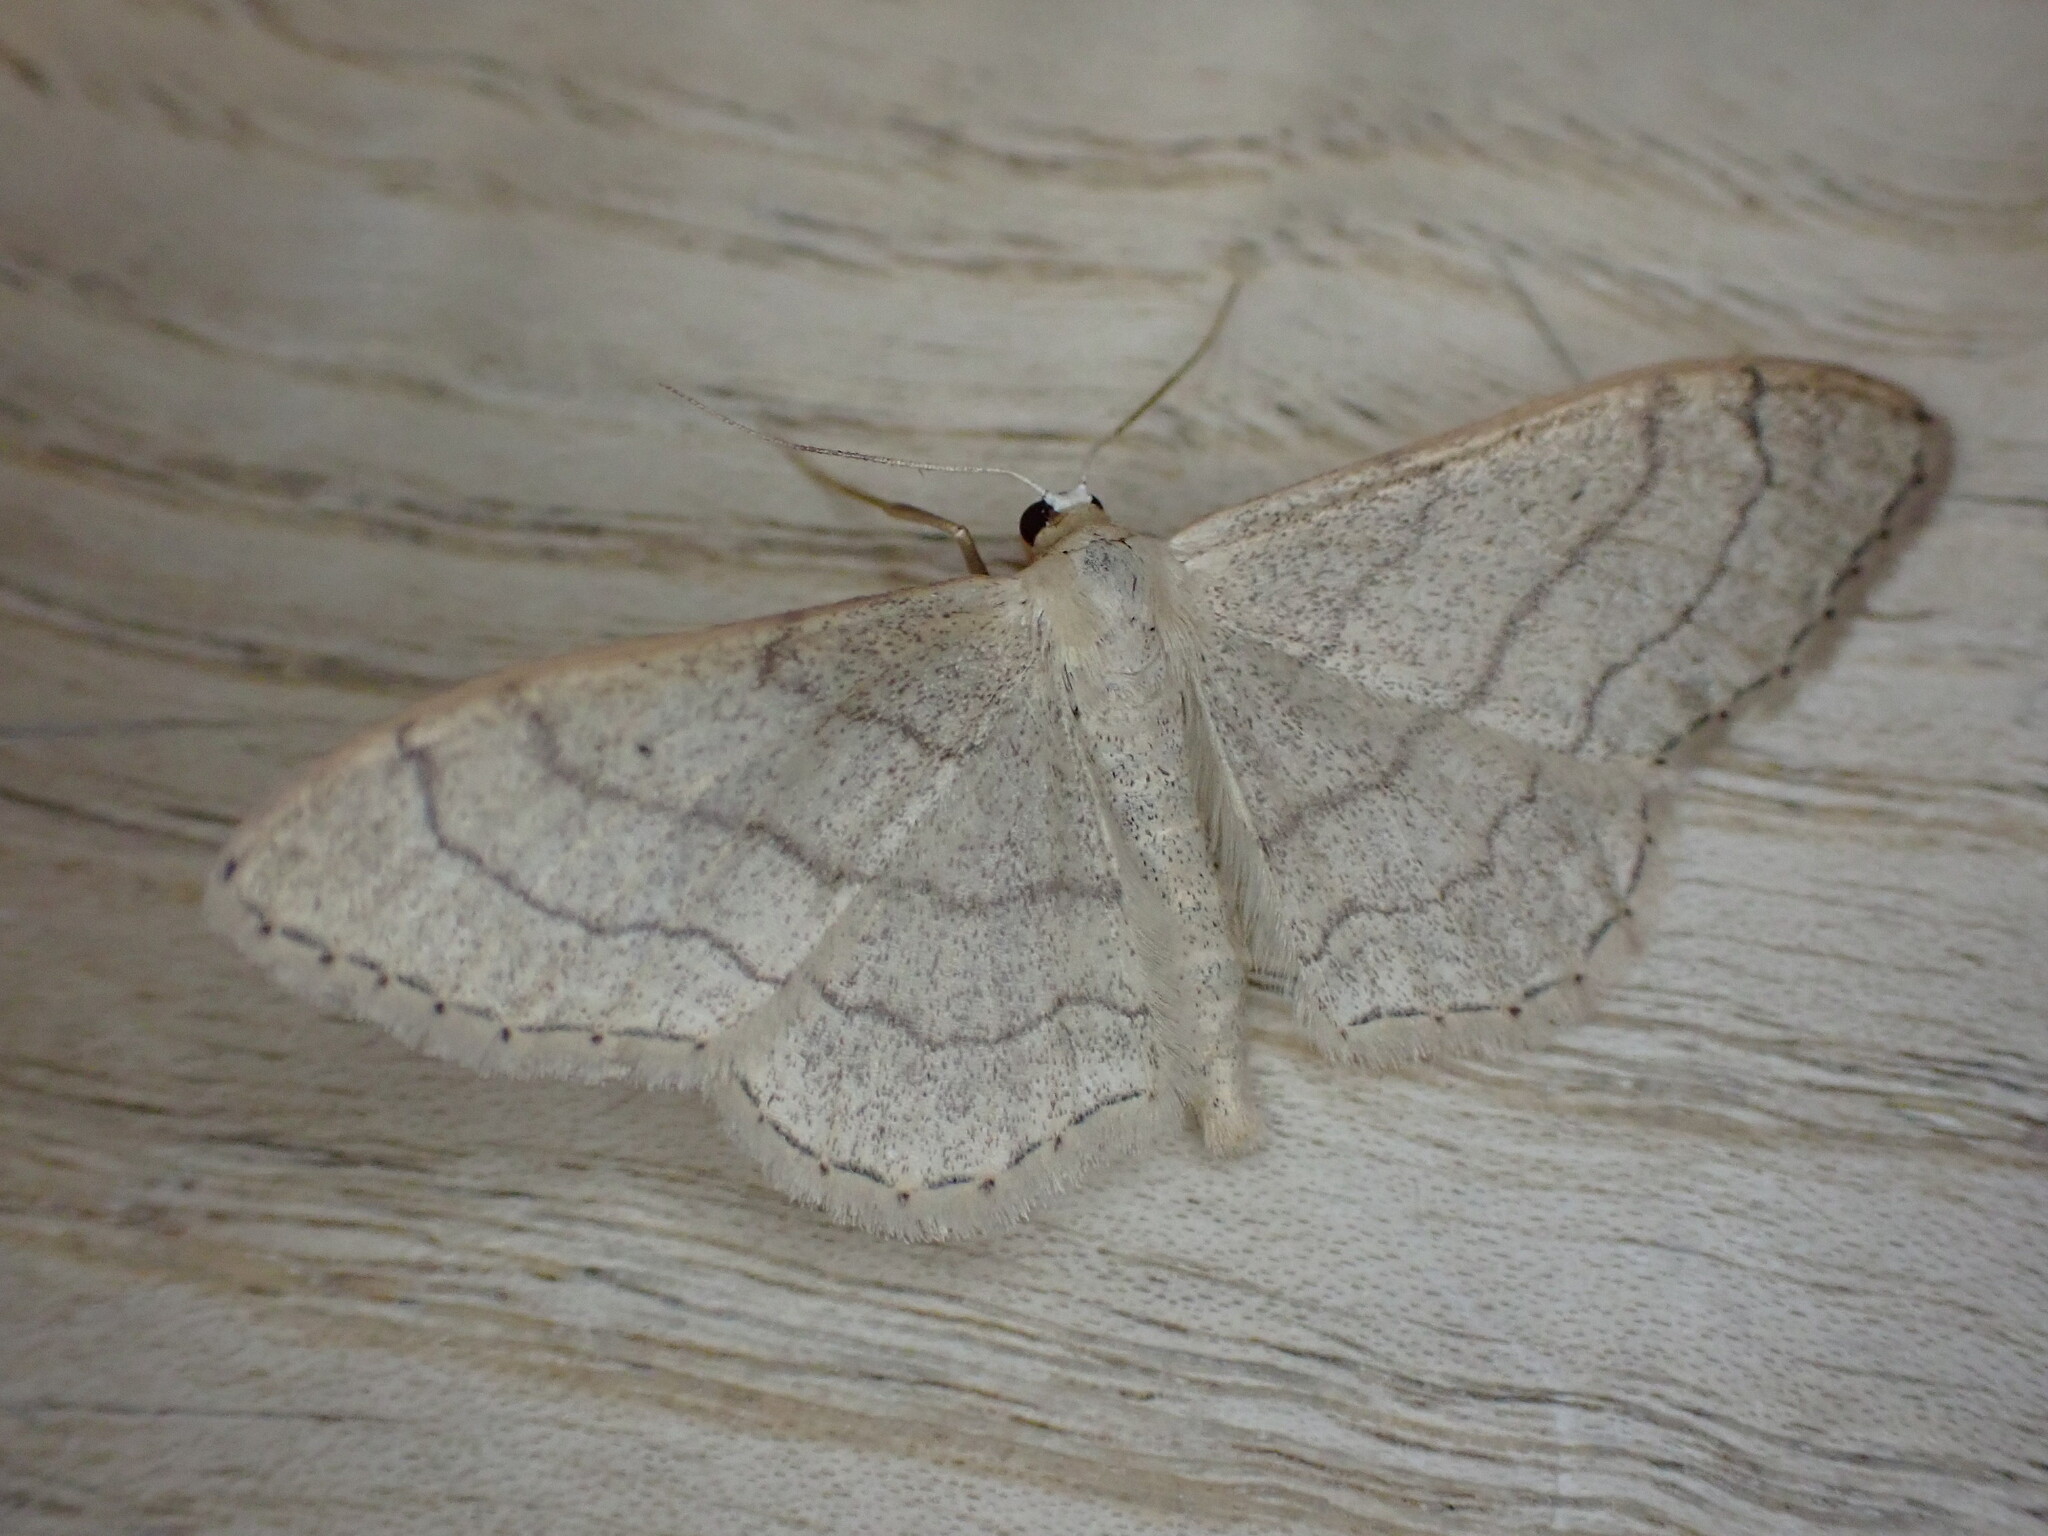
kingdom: Animalia
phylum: Arthropoda
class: Insecta
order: Lepidoptera
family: Geometridae
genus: Idaea
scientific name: Idaea aversata
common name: Riband wave
